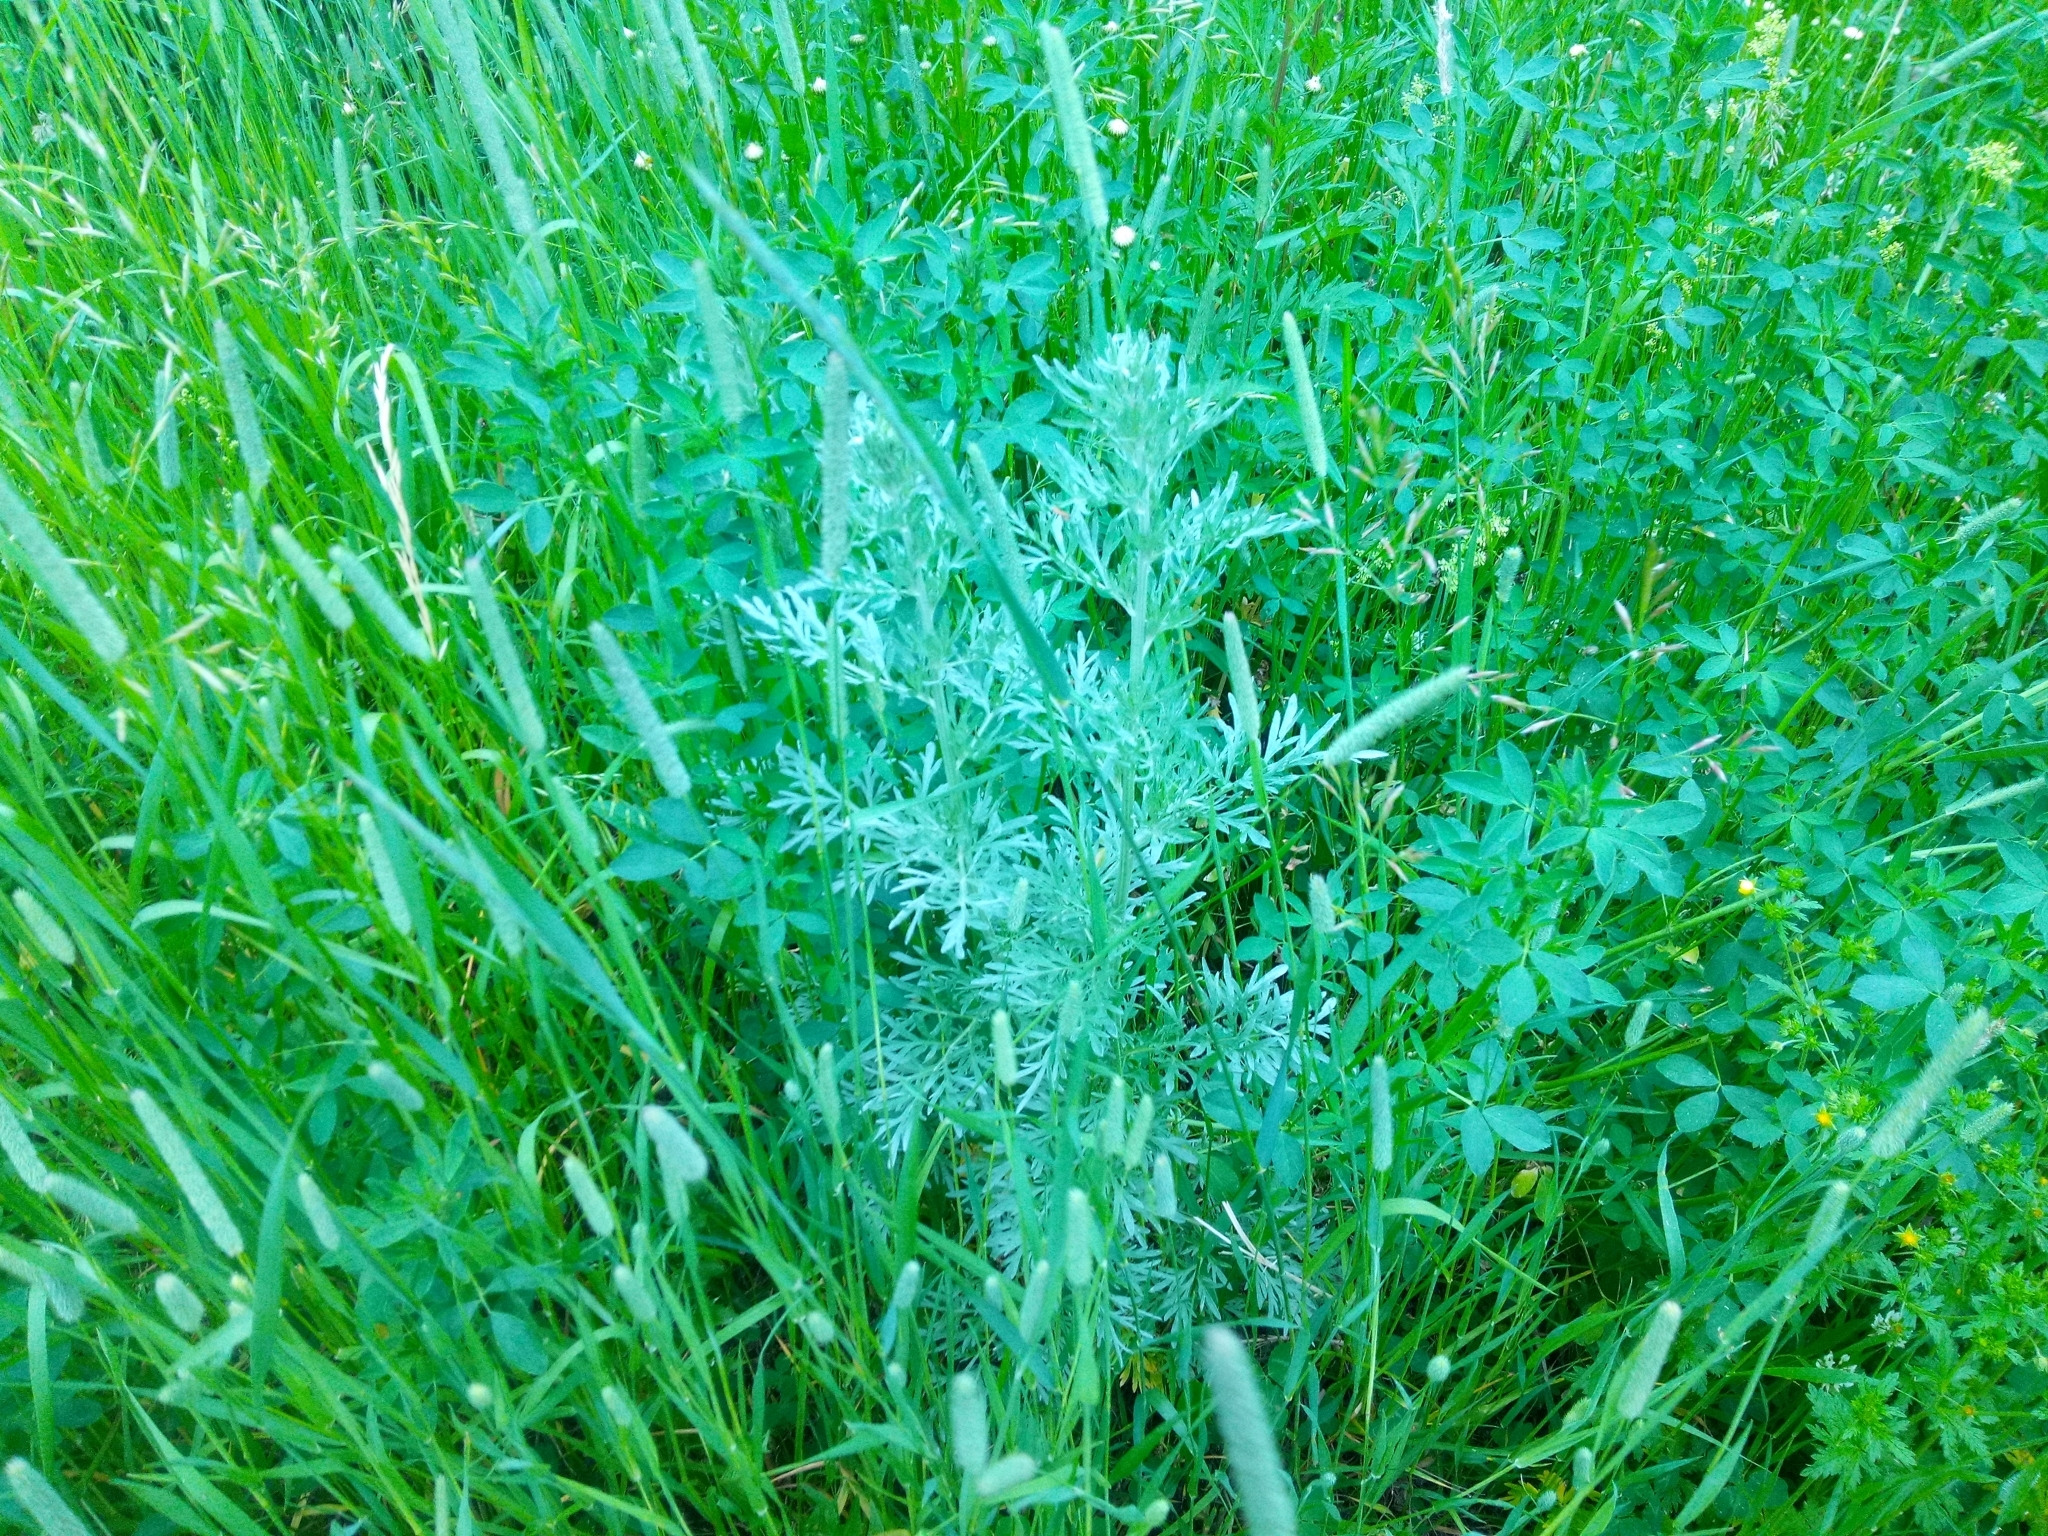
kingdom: Plantae
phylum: Tracheophyta
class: Magnoliopsida
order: Asterales
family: Asteraceae
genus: Artemisia
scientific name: Artemisia absinthium
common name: Wormwood
